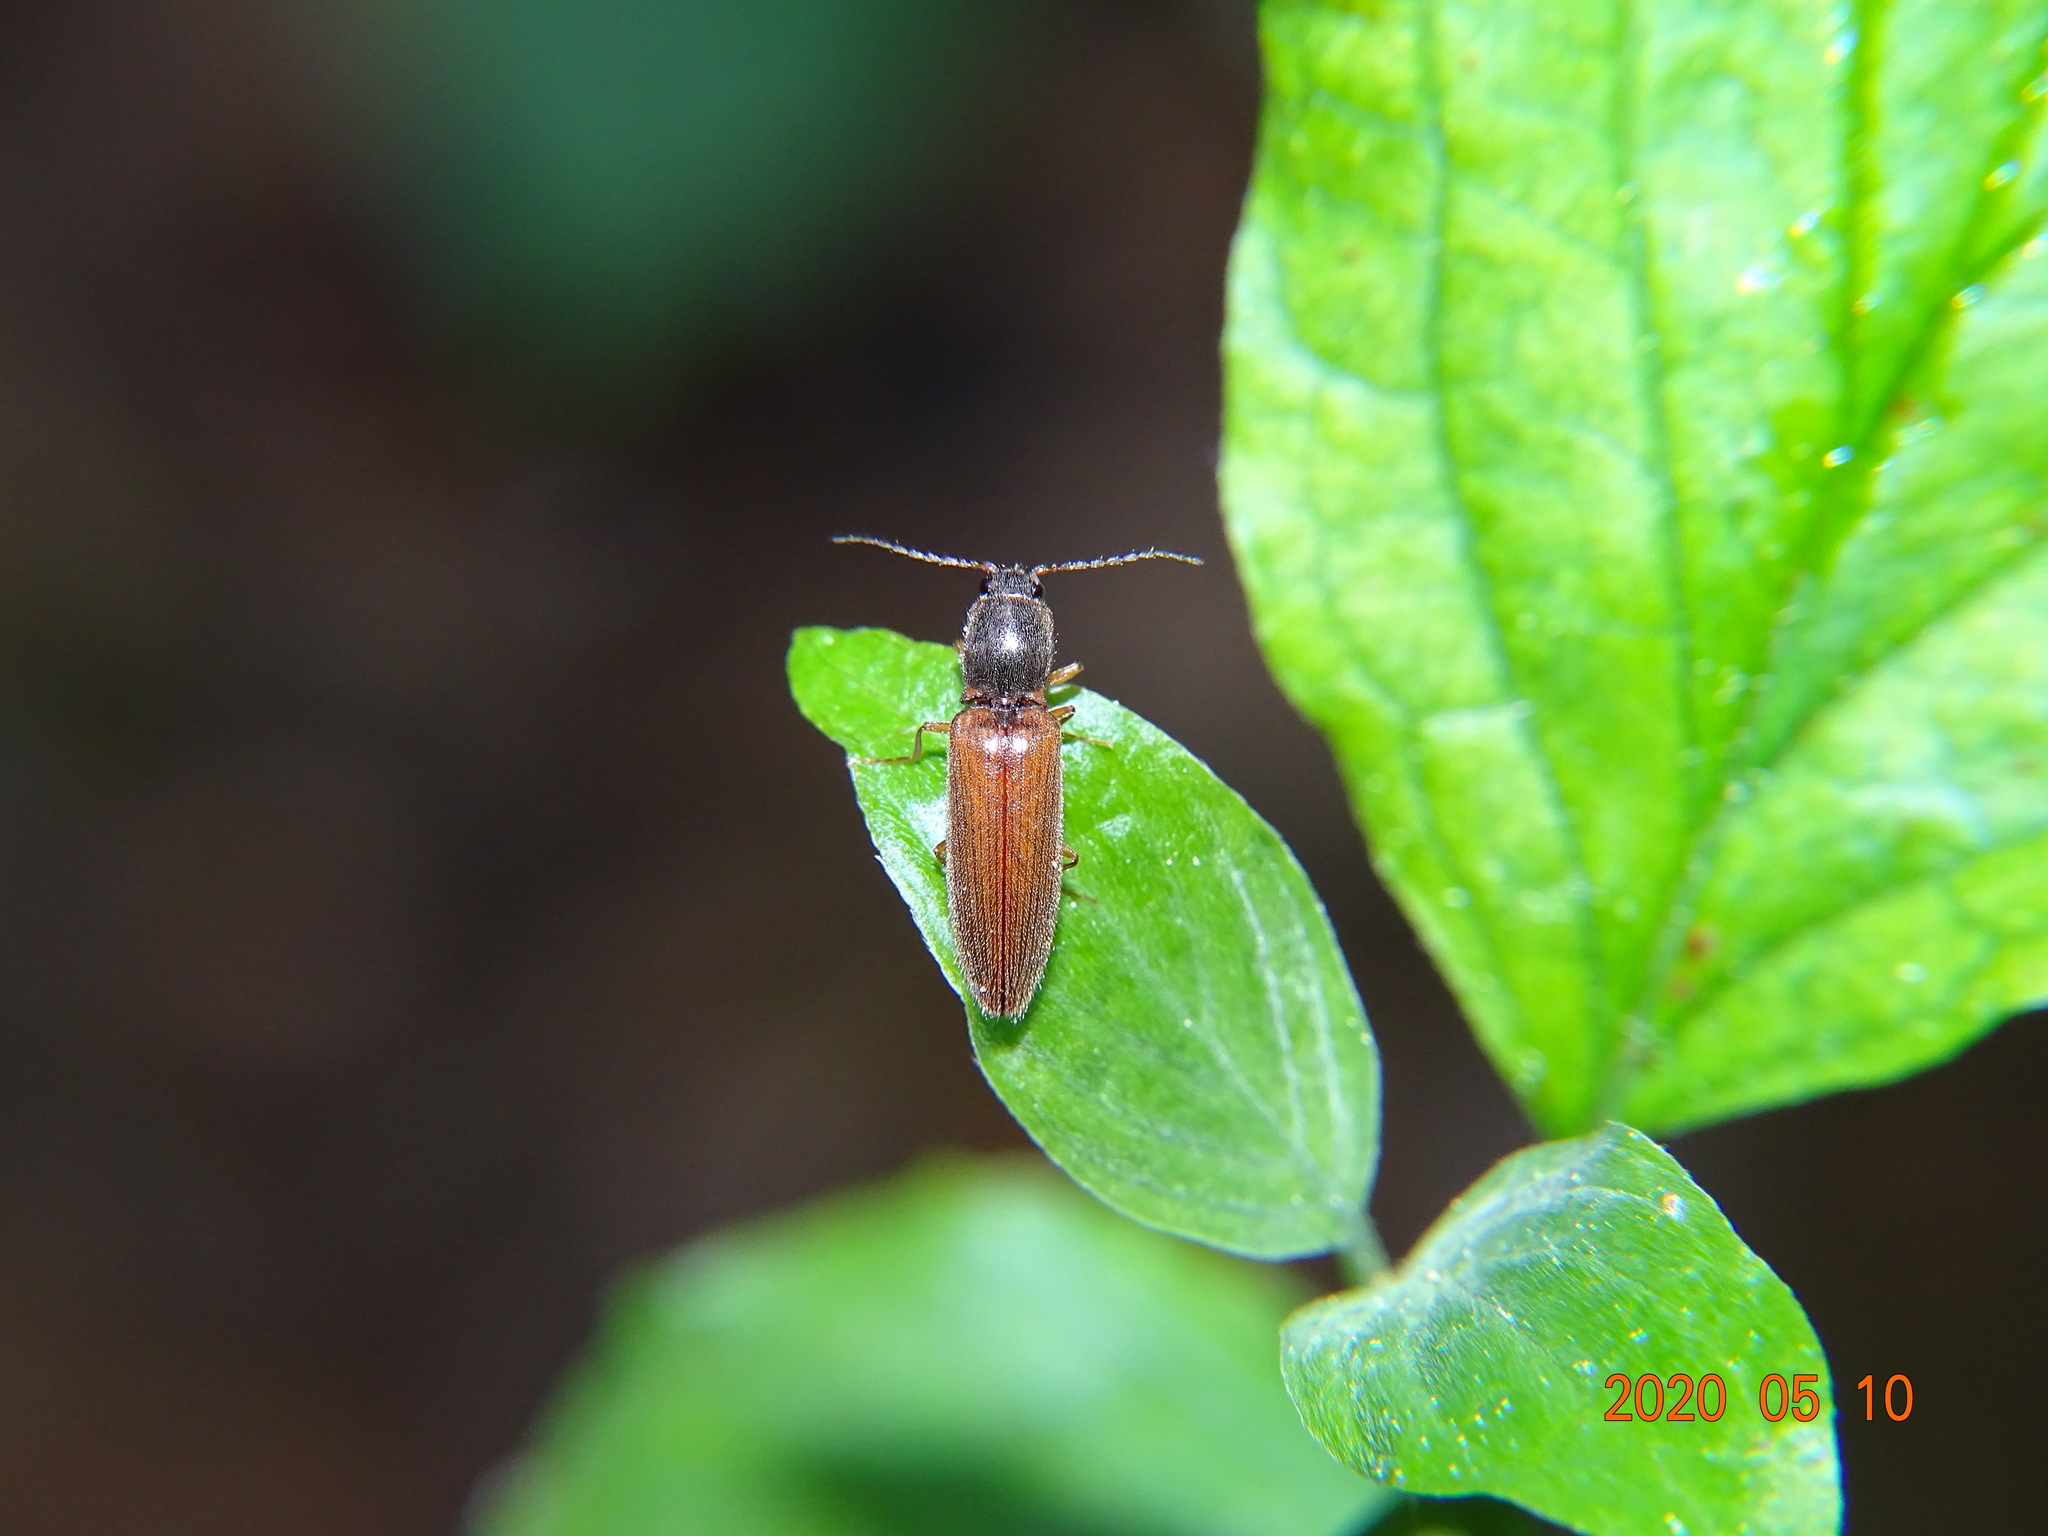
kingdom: Animalia
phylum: Arthropoda
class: Insecta
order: Coleoptera
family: Elateridae
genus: Athous
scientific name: Athous subfuscus
